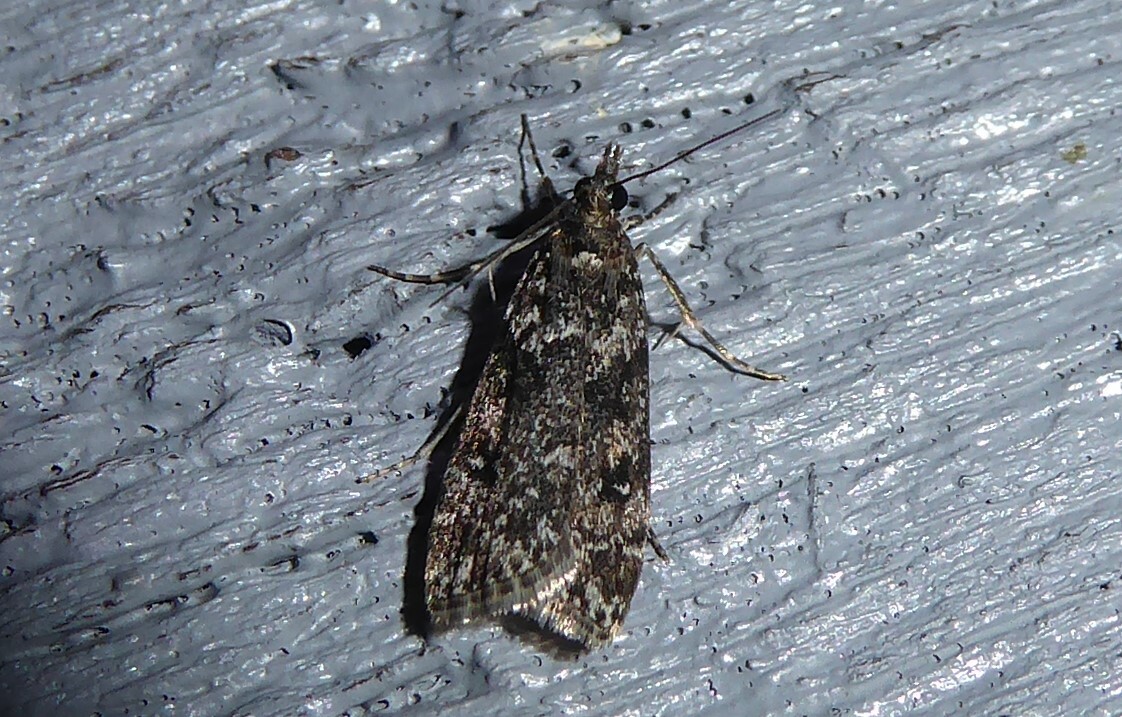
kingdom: Animalia
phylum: Arthropoda
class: Insecta
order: Lepidoptera
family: Crambidae
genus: Eudonia
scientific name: Eudonia philerga
